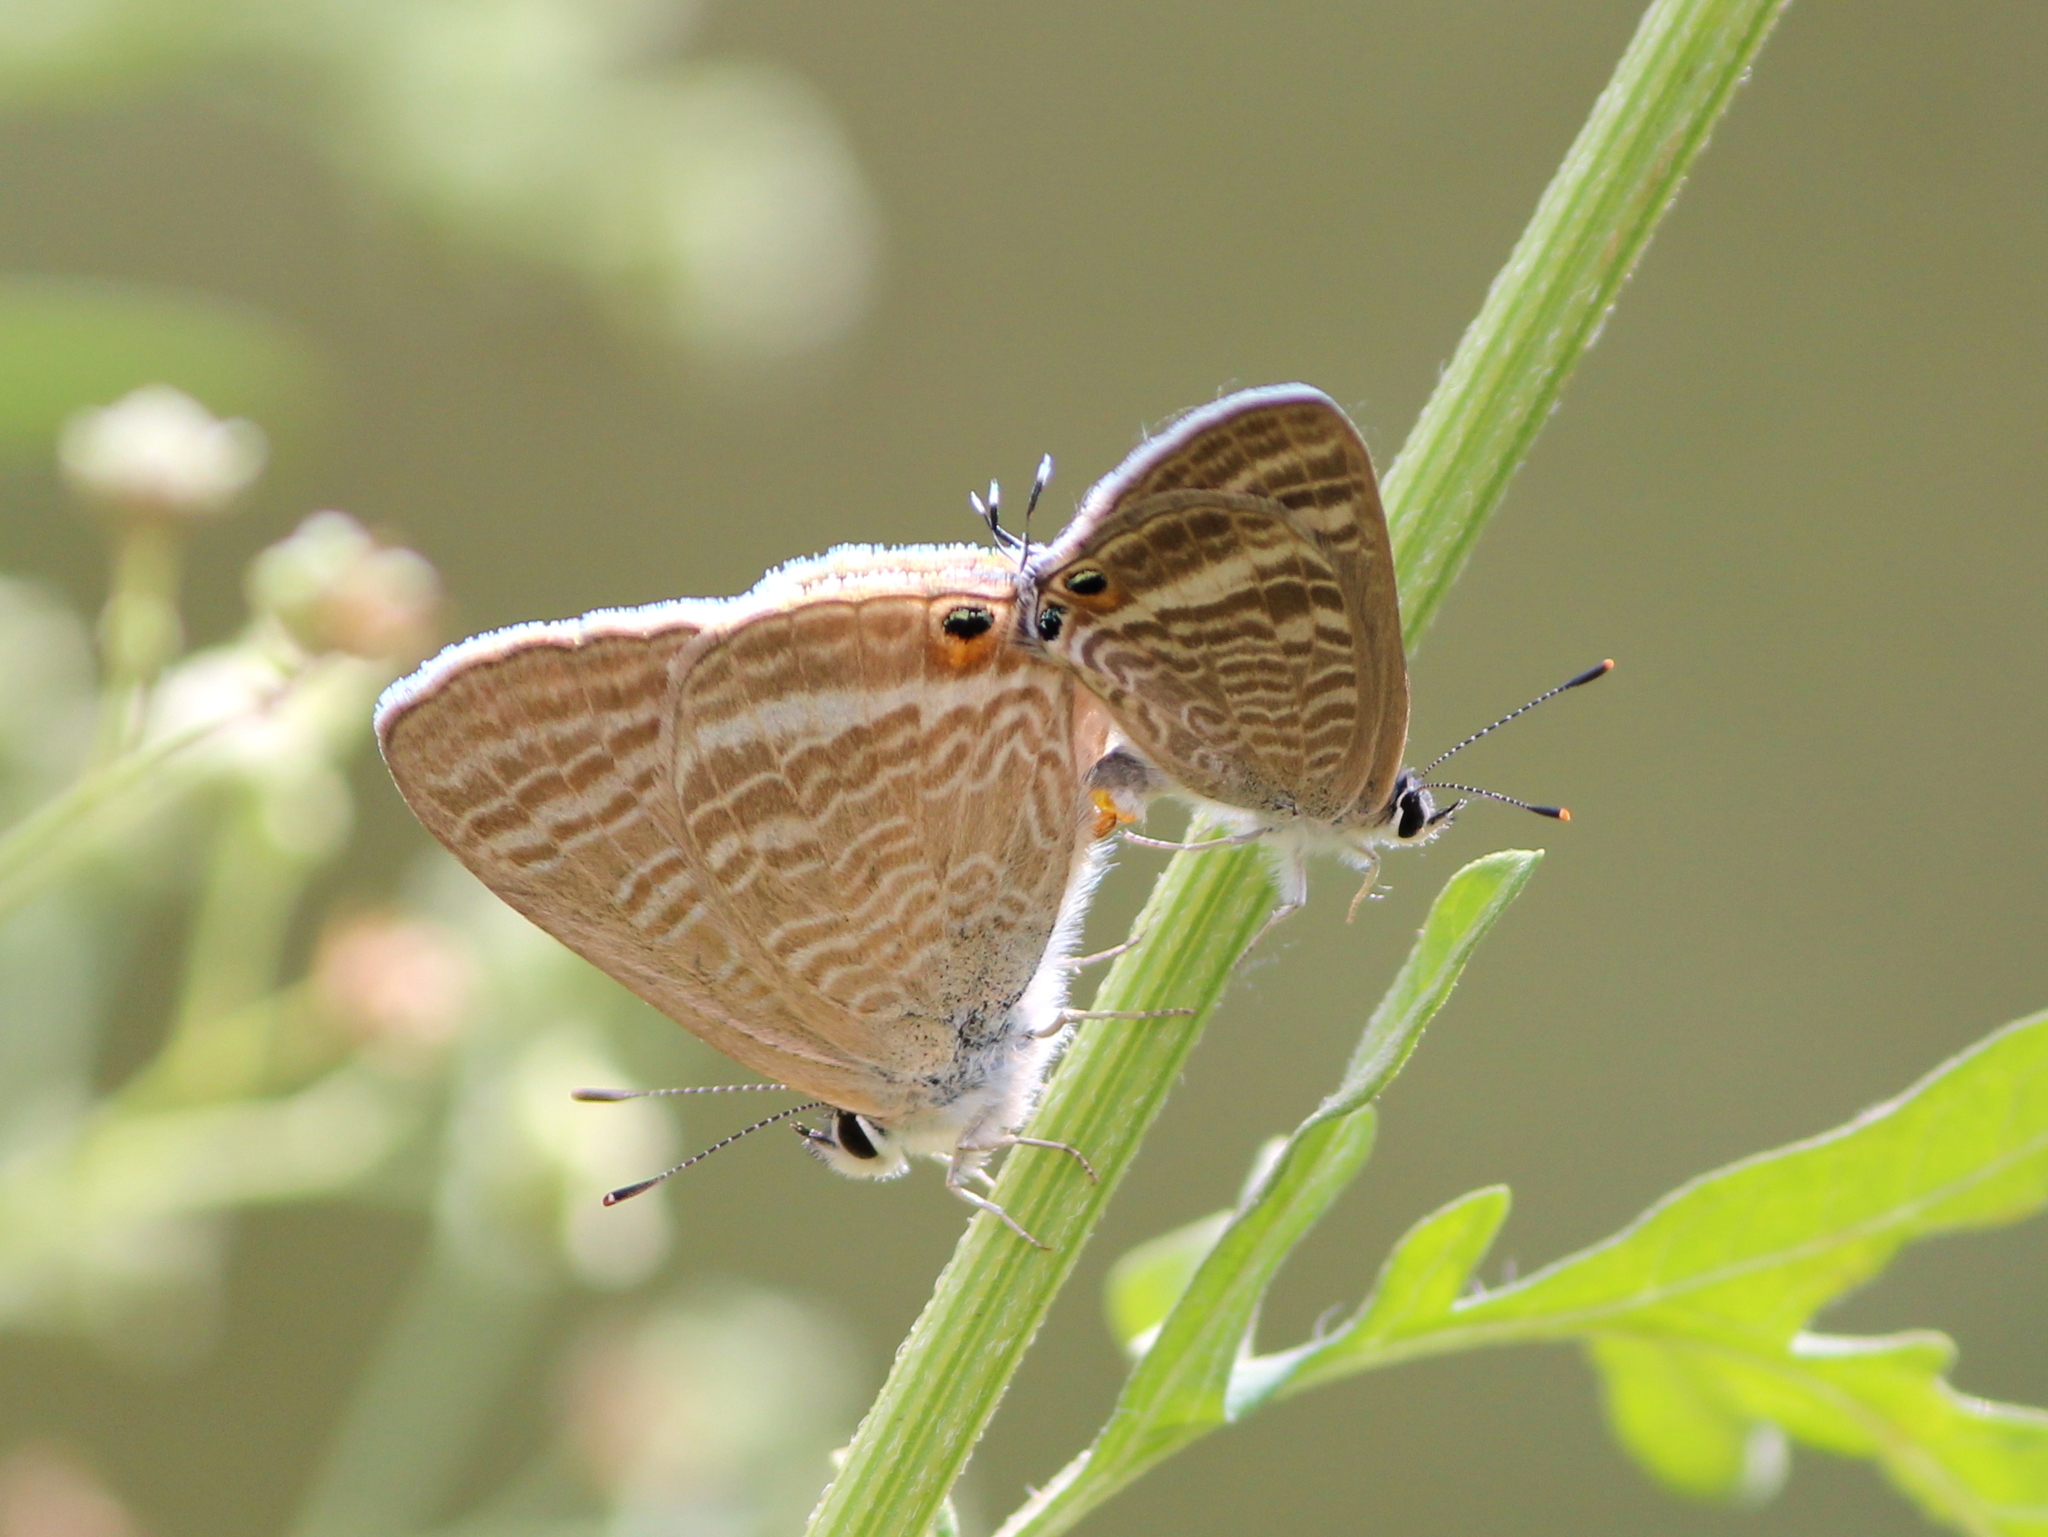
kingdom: Animalia
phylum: Arthropoda
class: Insecta
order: Lepidoptera
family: Lycaenidae
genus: Lampides
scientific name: Lampides boeticus
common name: Long-tailed blue
